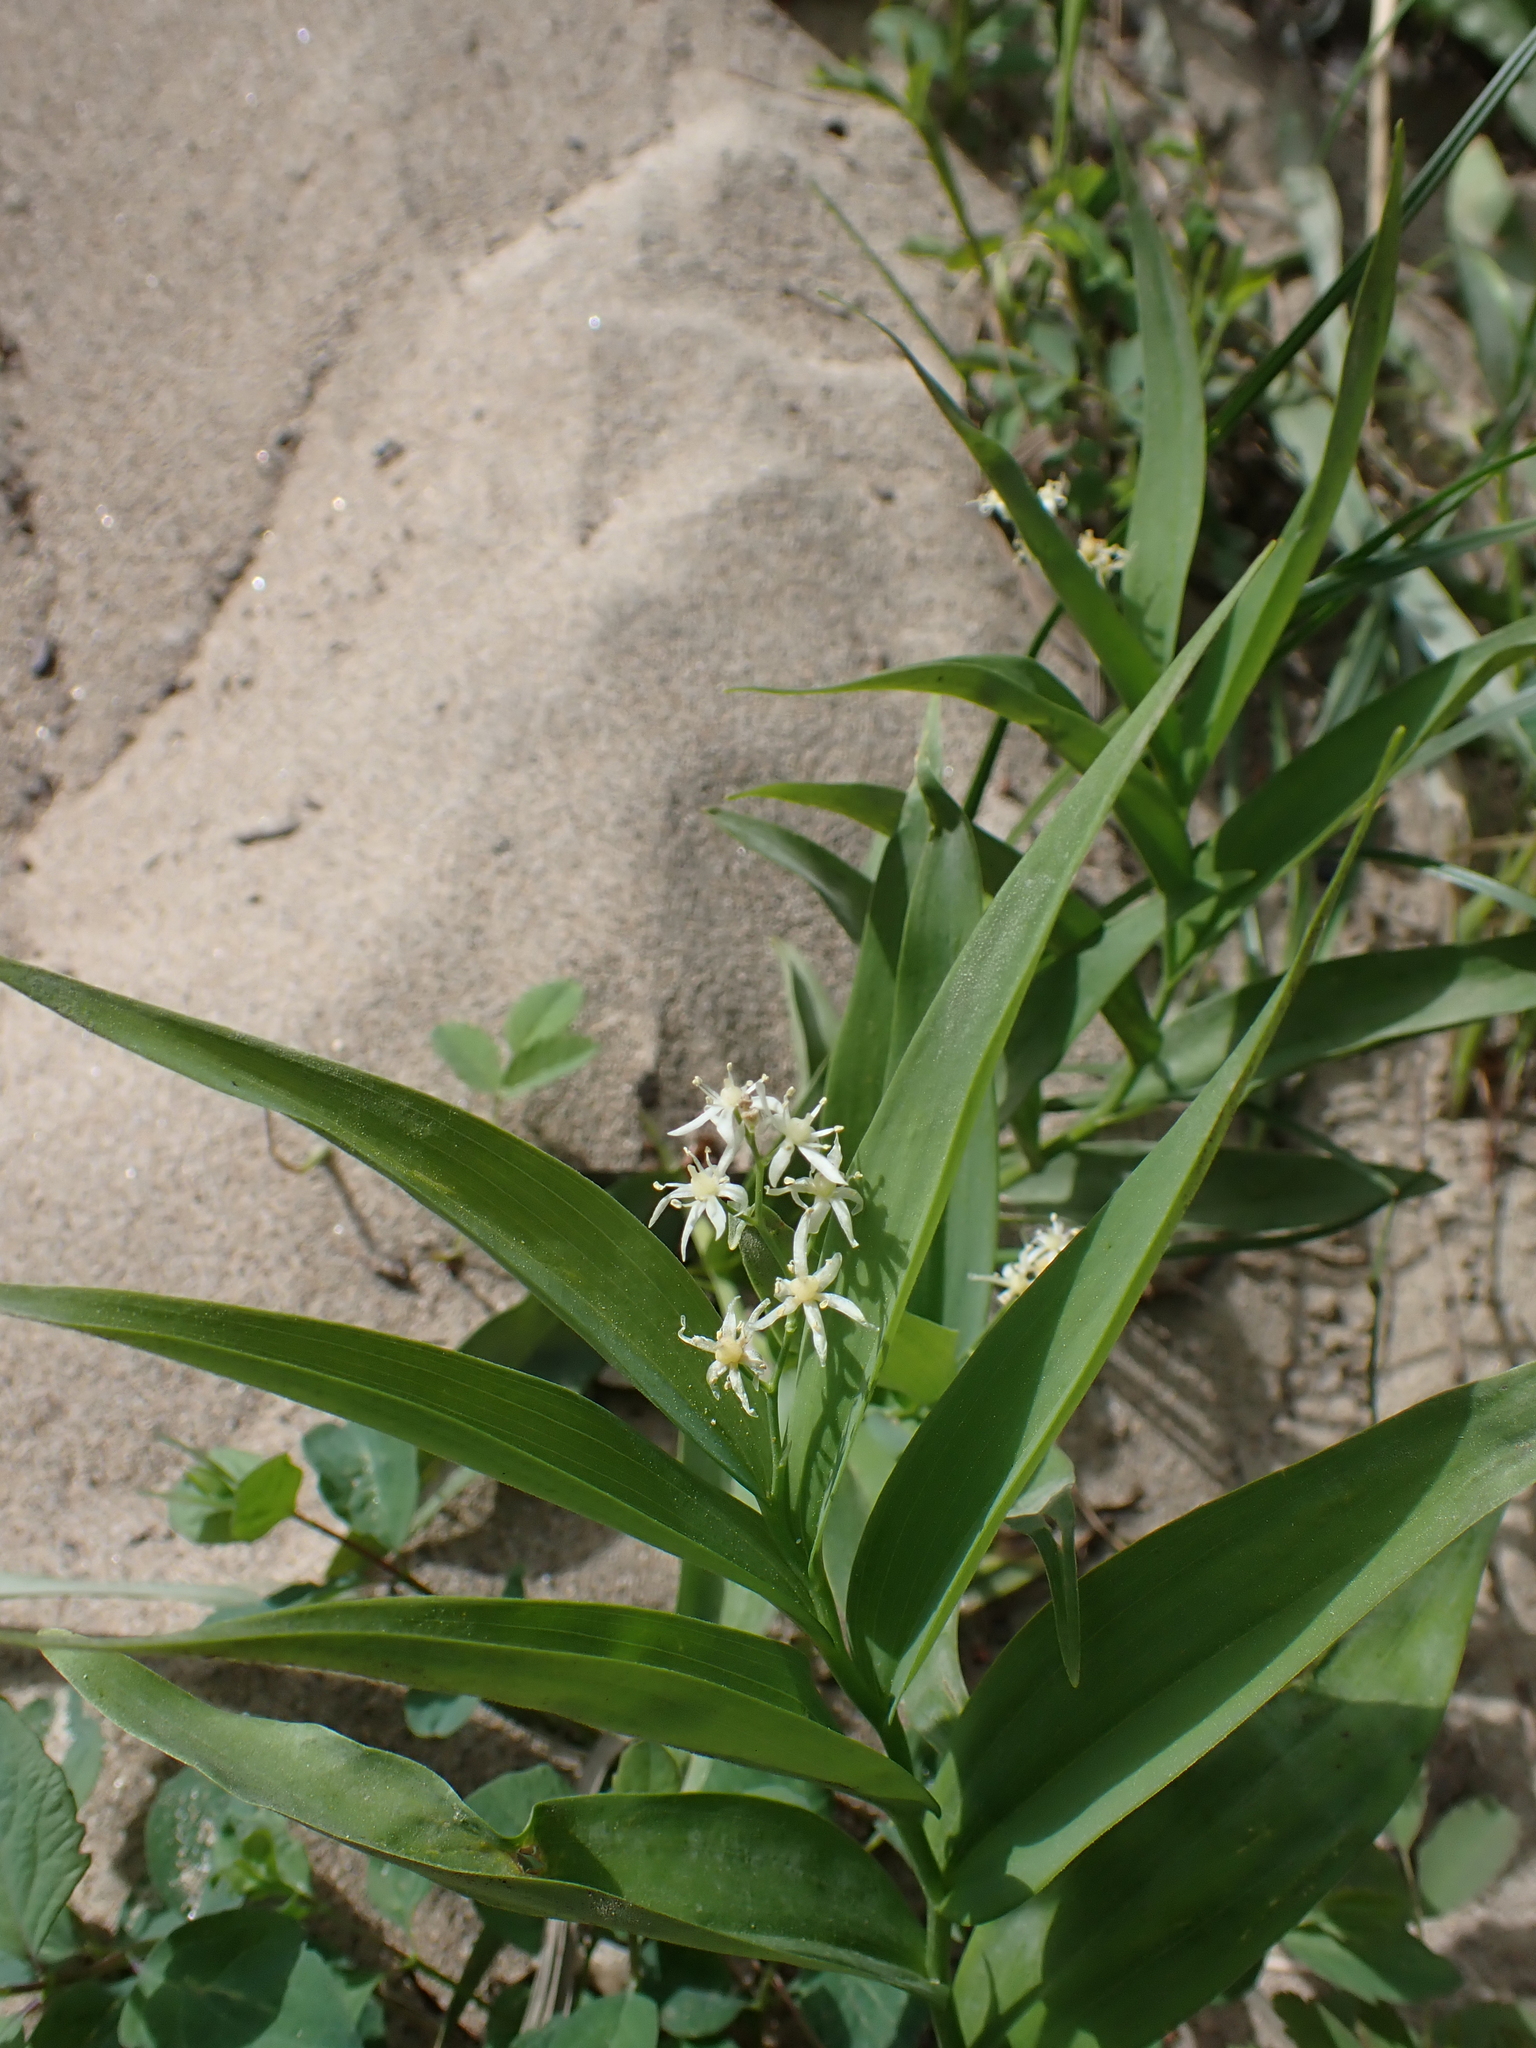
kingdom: Plantae
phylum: Tracheophyta
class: Liliopsida
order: Asparagales
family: Asparagaceae
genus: Maianthemum
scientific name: Maianthemum stellatum
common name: Little false solomon's seal
